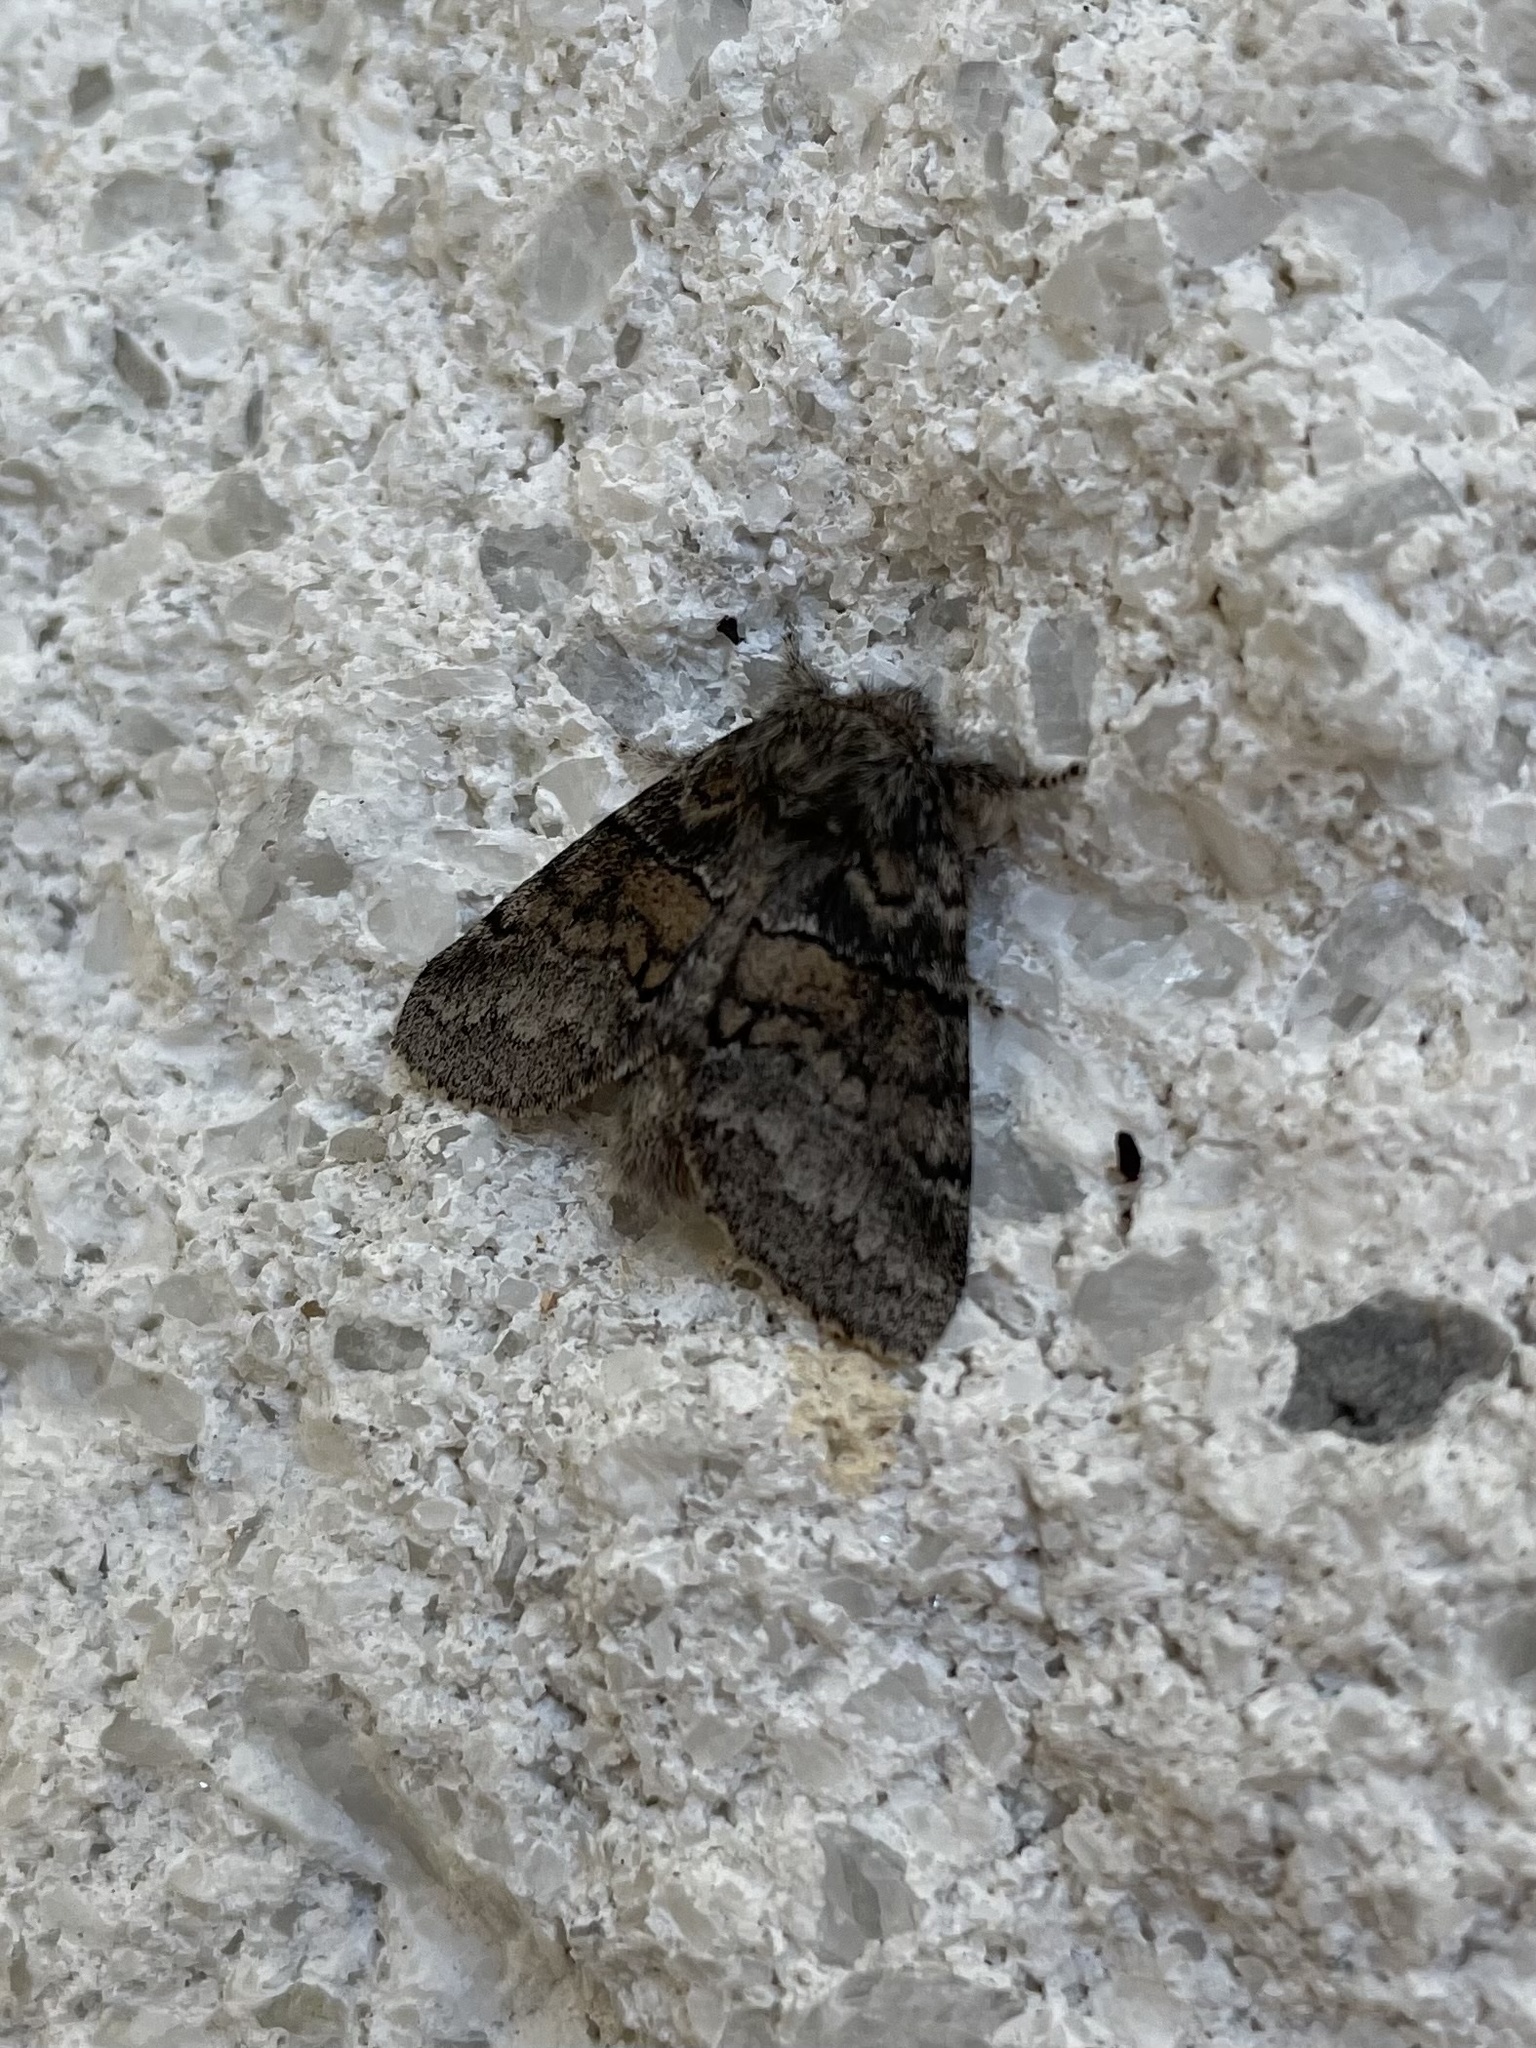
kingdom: Animalia
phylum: Arthropoda
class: Insecta
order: Lepidoptera
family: Notodontidae
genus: Gluphisia
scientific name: Gluphisia septentrionis
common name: Common gluphisia
